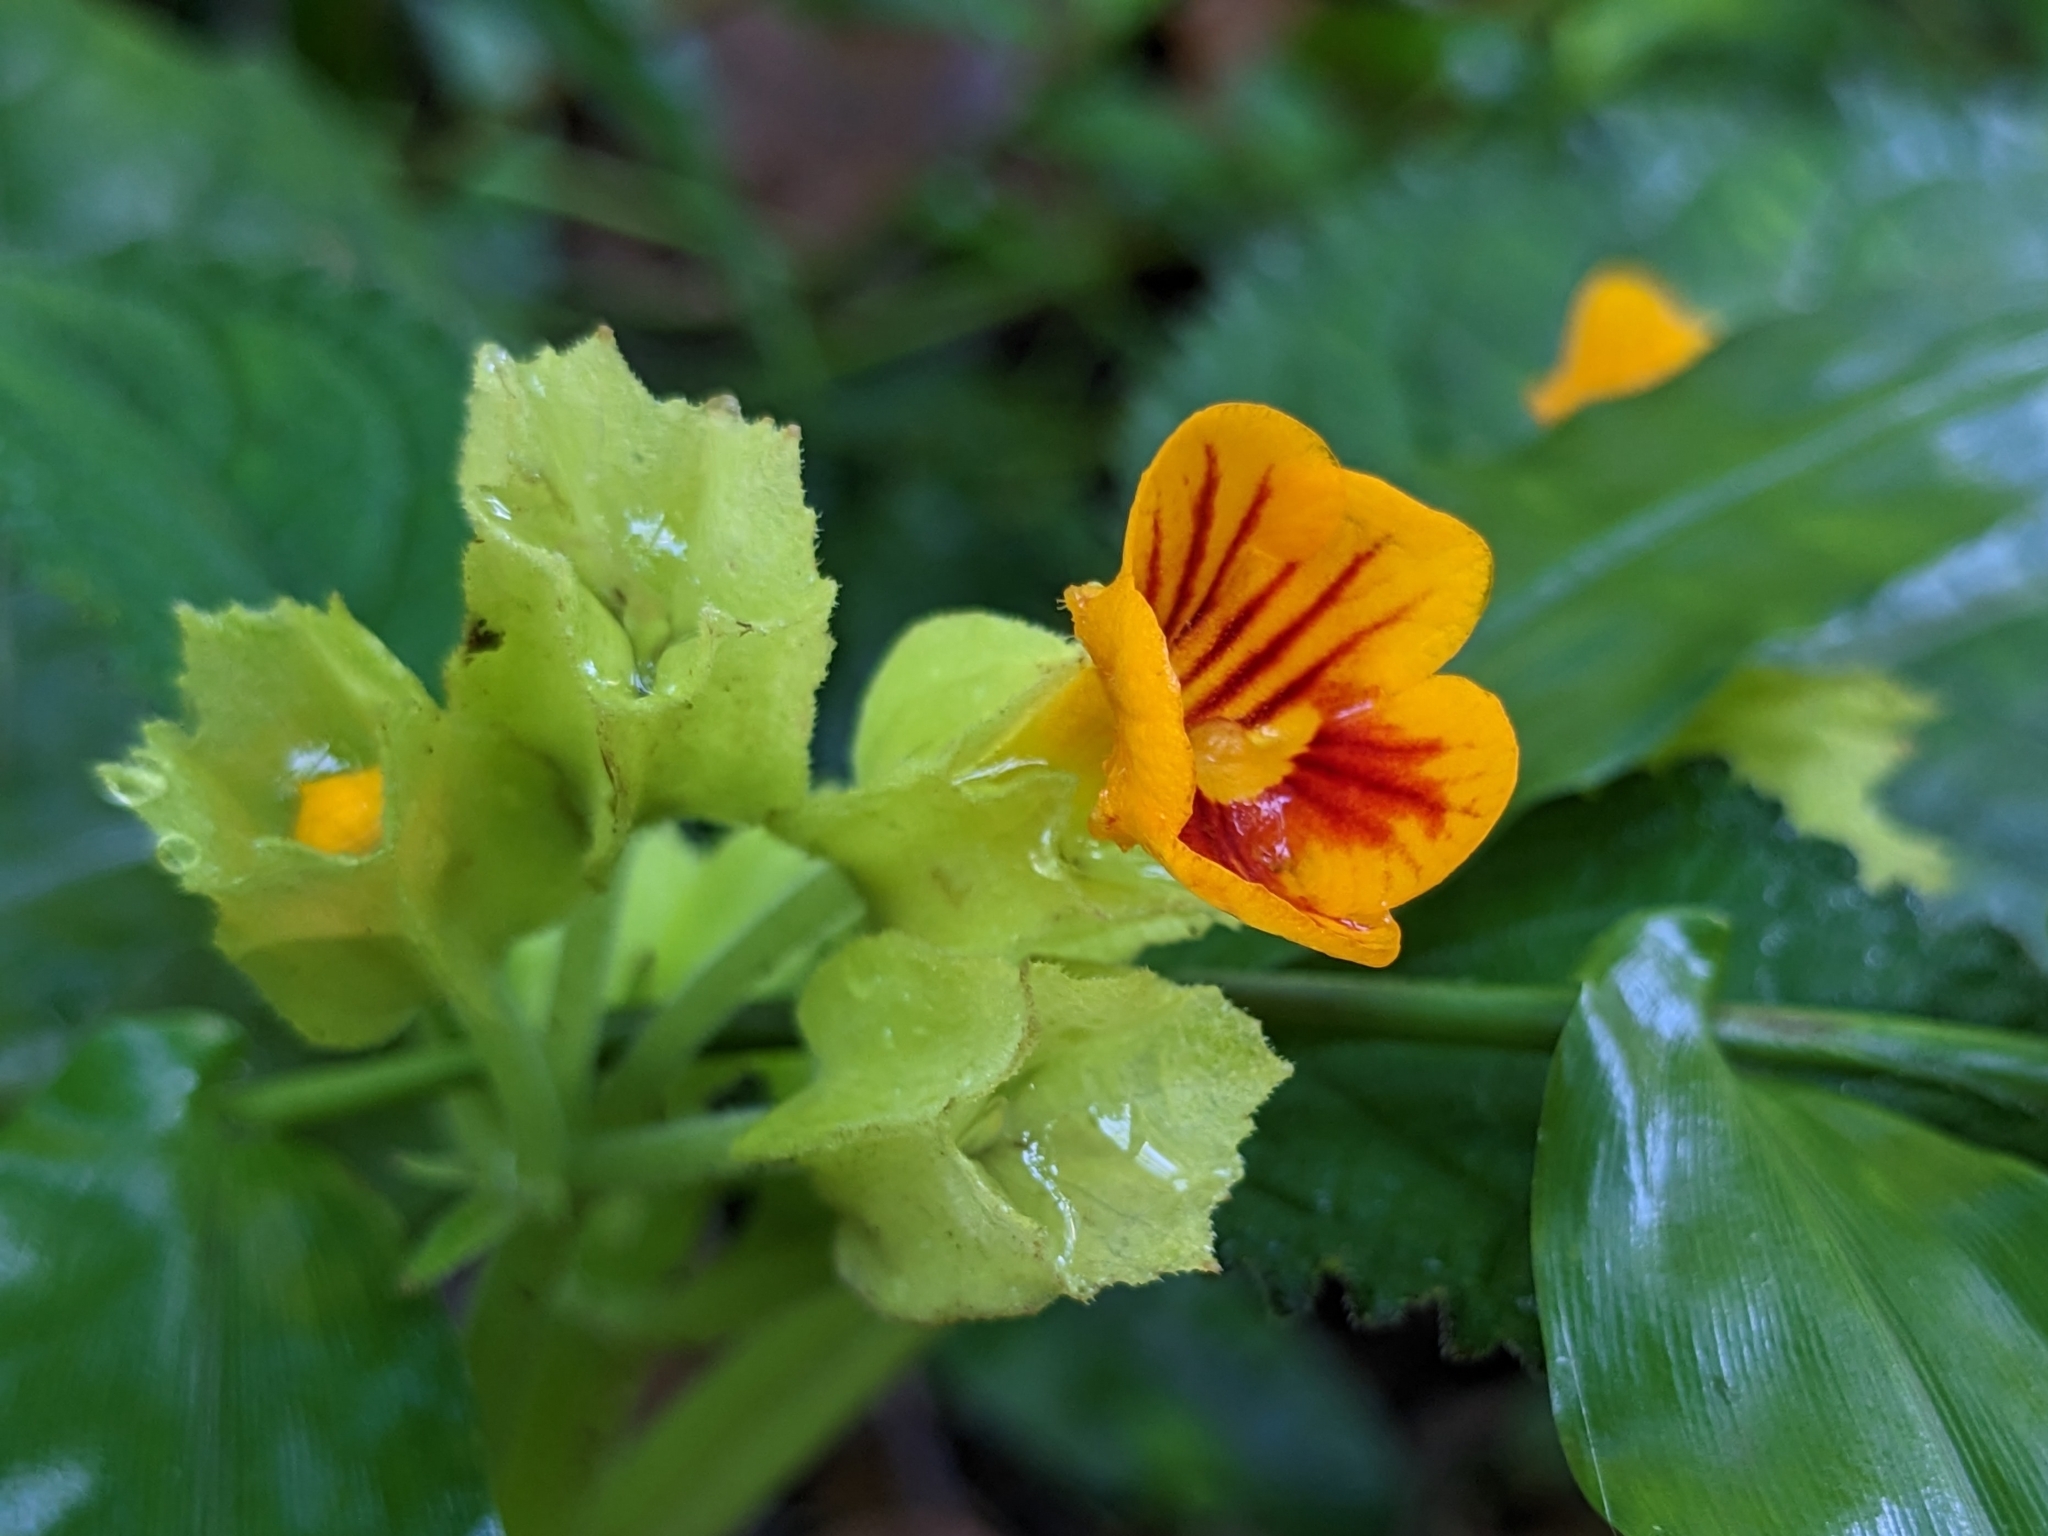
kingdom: Plantae
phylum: Tracheophyta
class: Magnoliopsida
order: Lamiales
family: Gesneriaceae
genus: Chrysothemis
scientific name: Chrysothemis friedrichsthaliana
